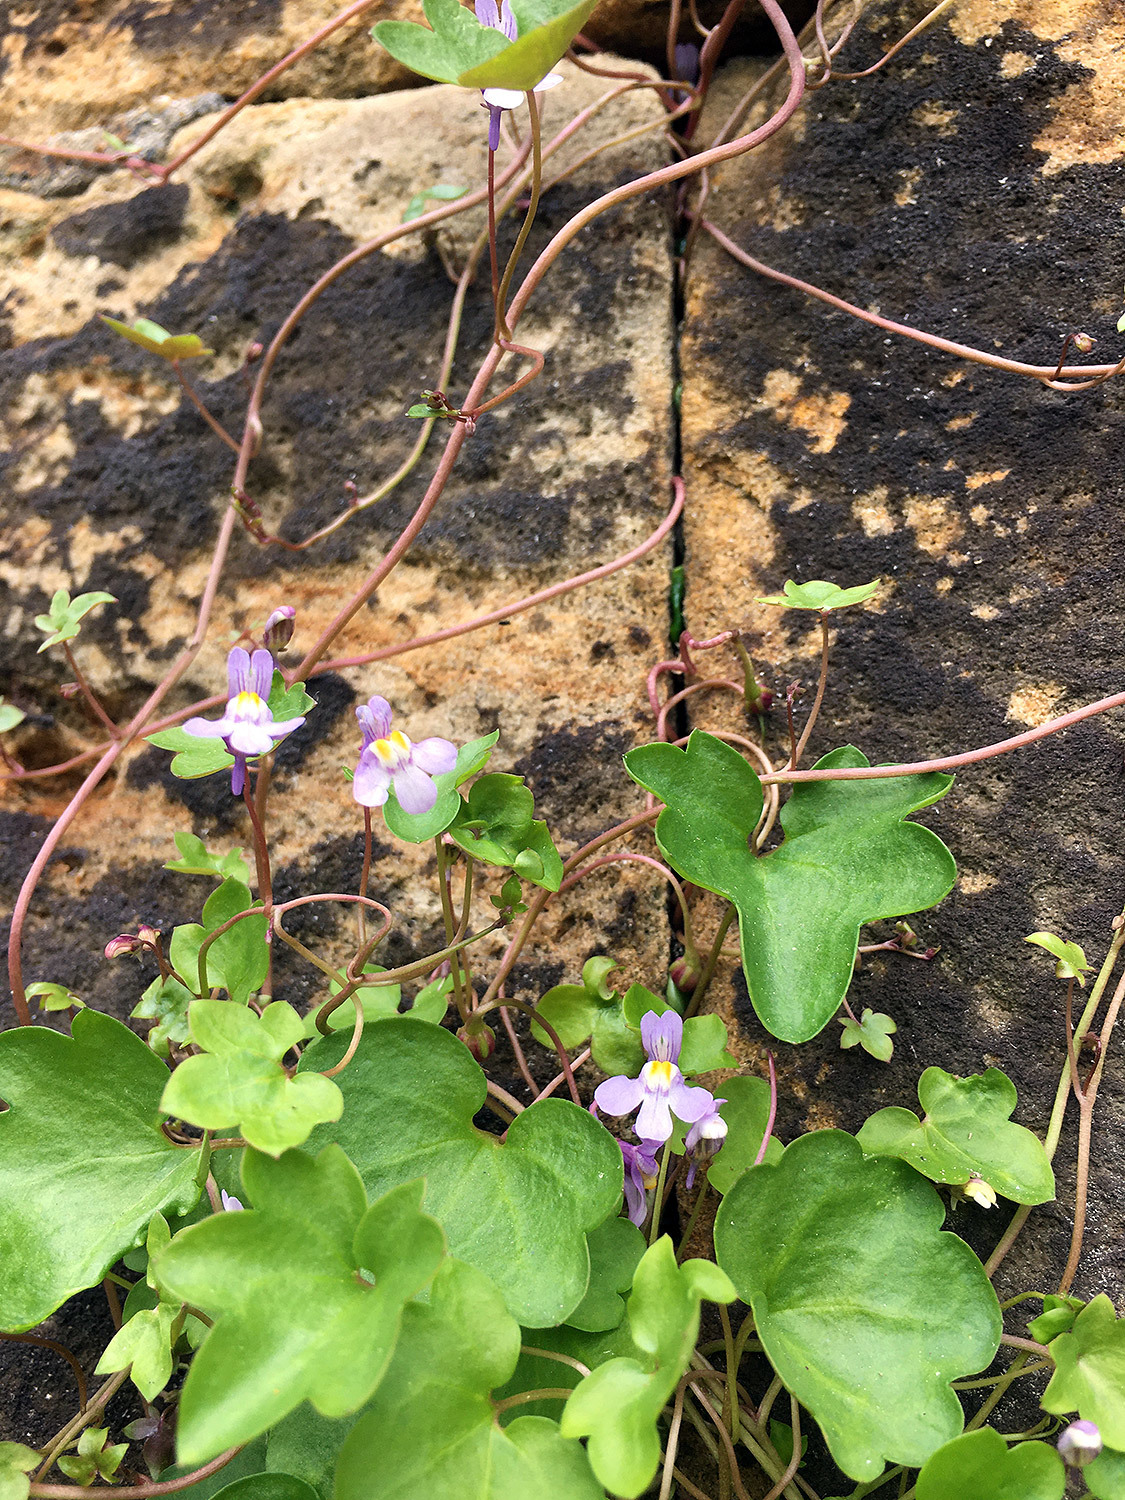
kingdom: Plantae
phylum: Tracheophyta
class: Magnoliopsida
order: Lamiales
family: Plantaginaceae
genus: Cymbalaria
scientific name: Cymbalaria muralis
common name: Ivy-leaved toadflax
